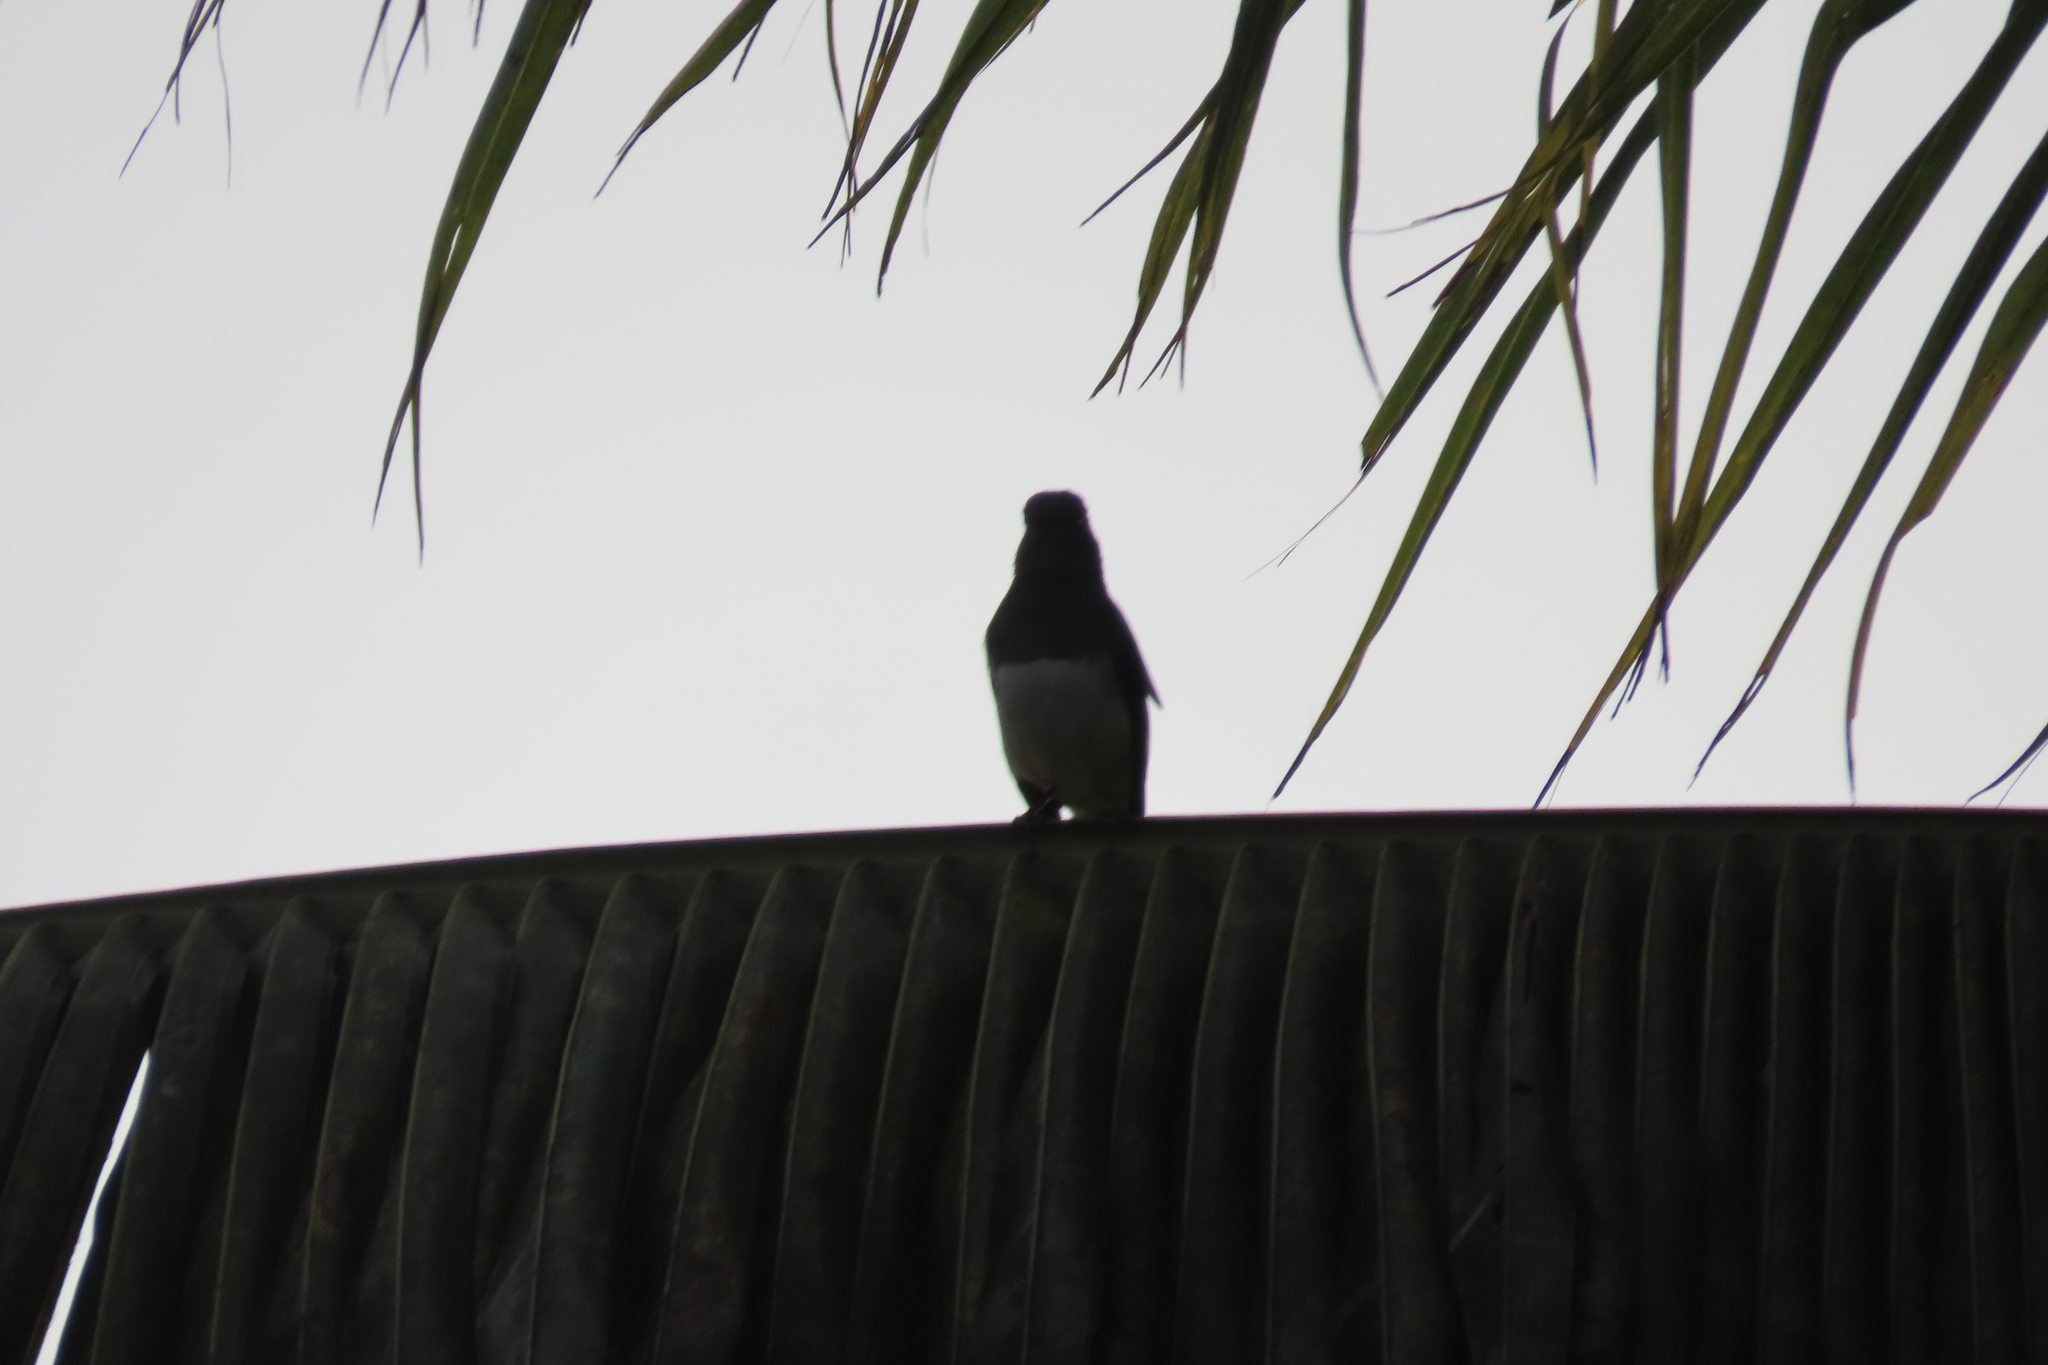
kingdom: Animalia
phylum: Chordata
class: Aves
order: Passeriformes
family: Muscicapidae
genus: Copsychus
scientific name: Copsychus saularis
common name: Oriental magpie-robin
